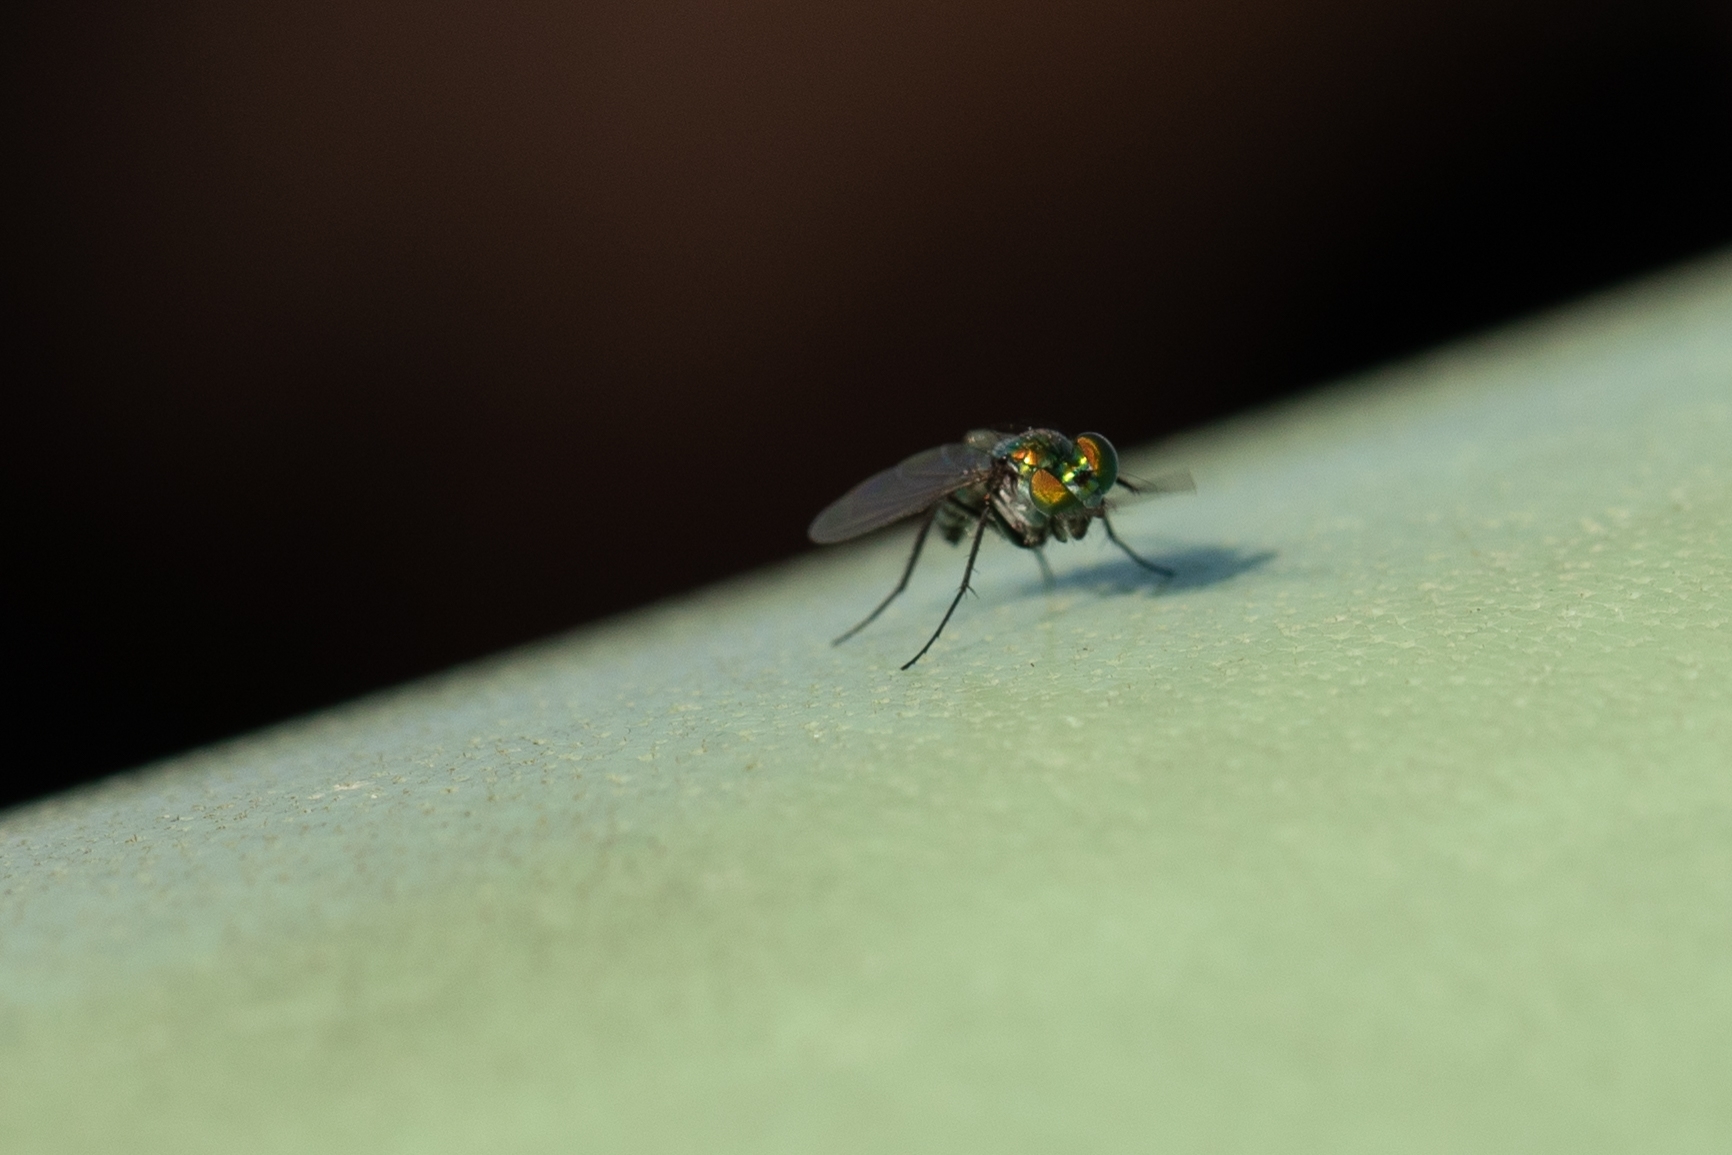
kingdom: Animalia
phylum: Arthropoda
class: Insecta
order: Diptera
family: Dolichopodidae
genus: Condylostylus
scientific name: Condylostylus mundus
